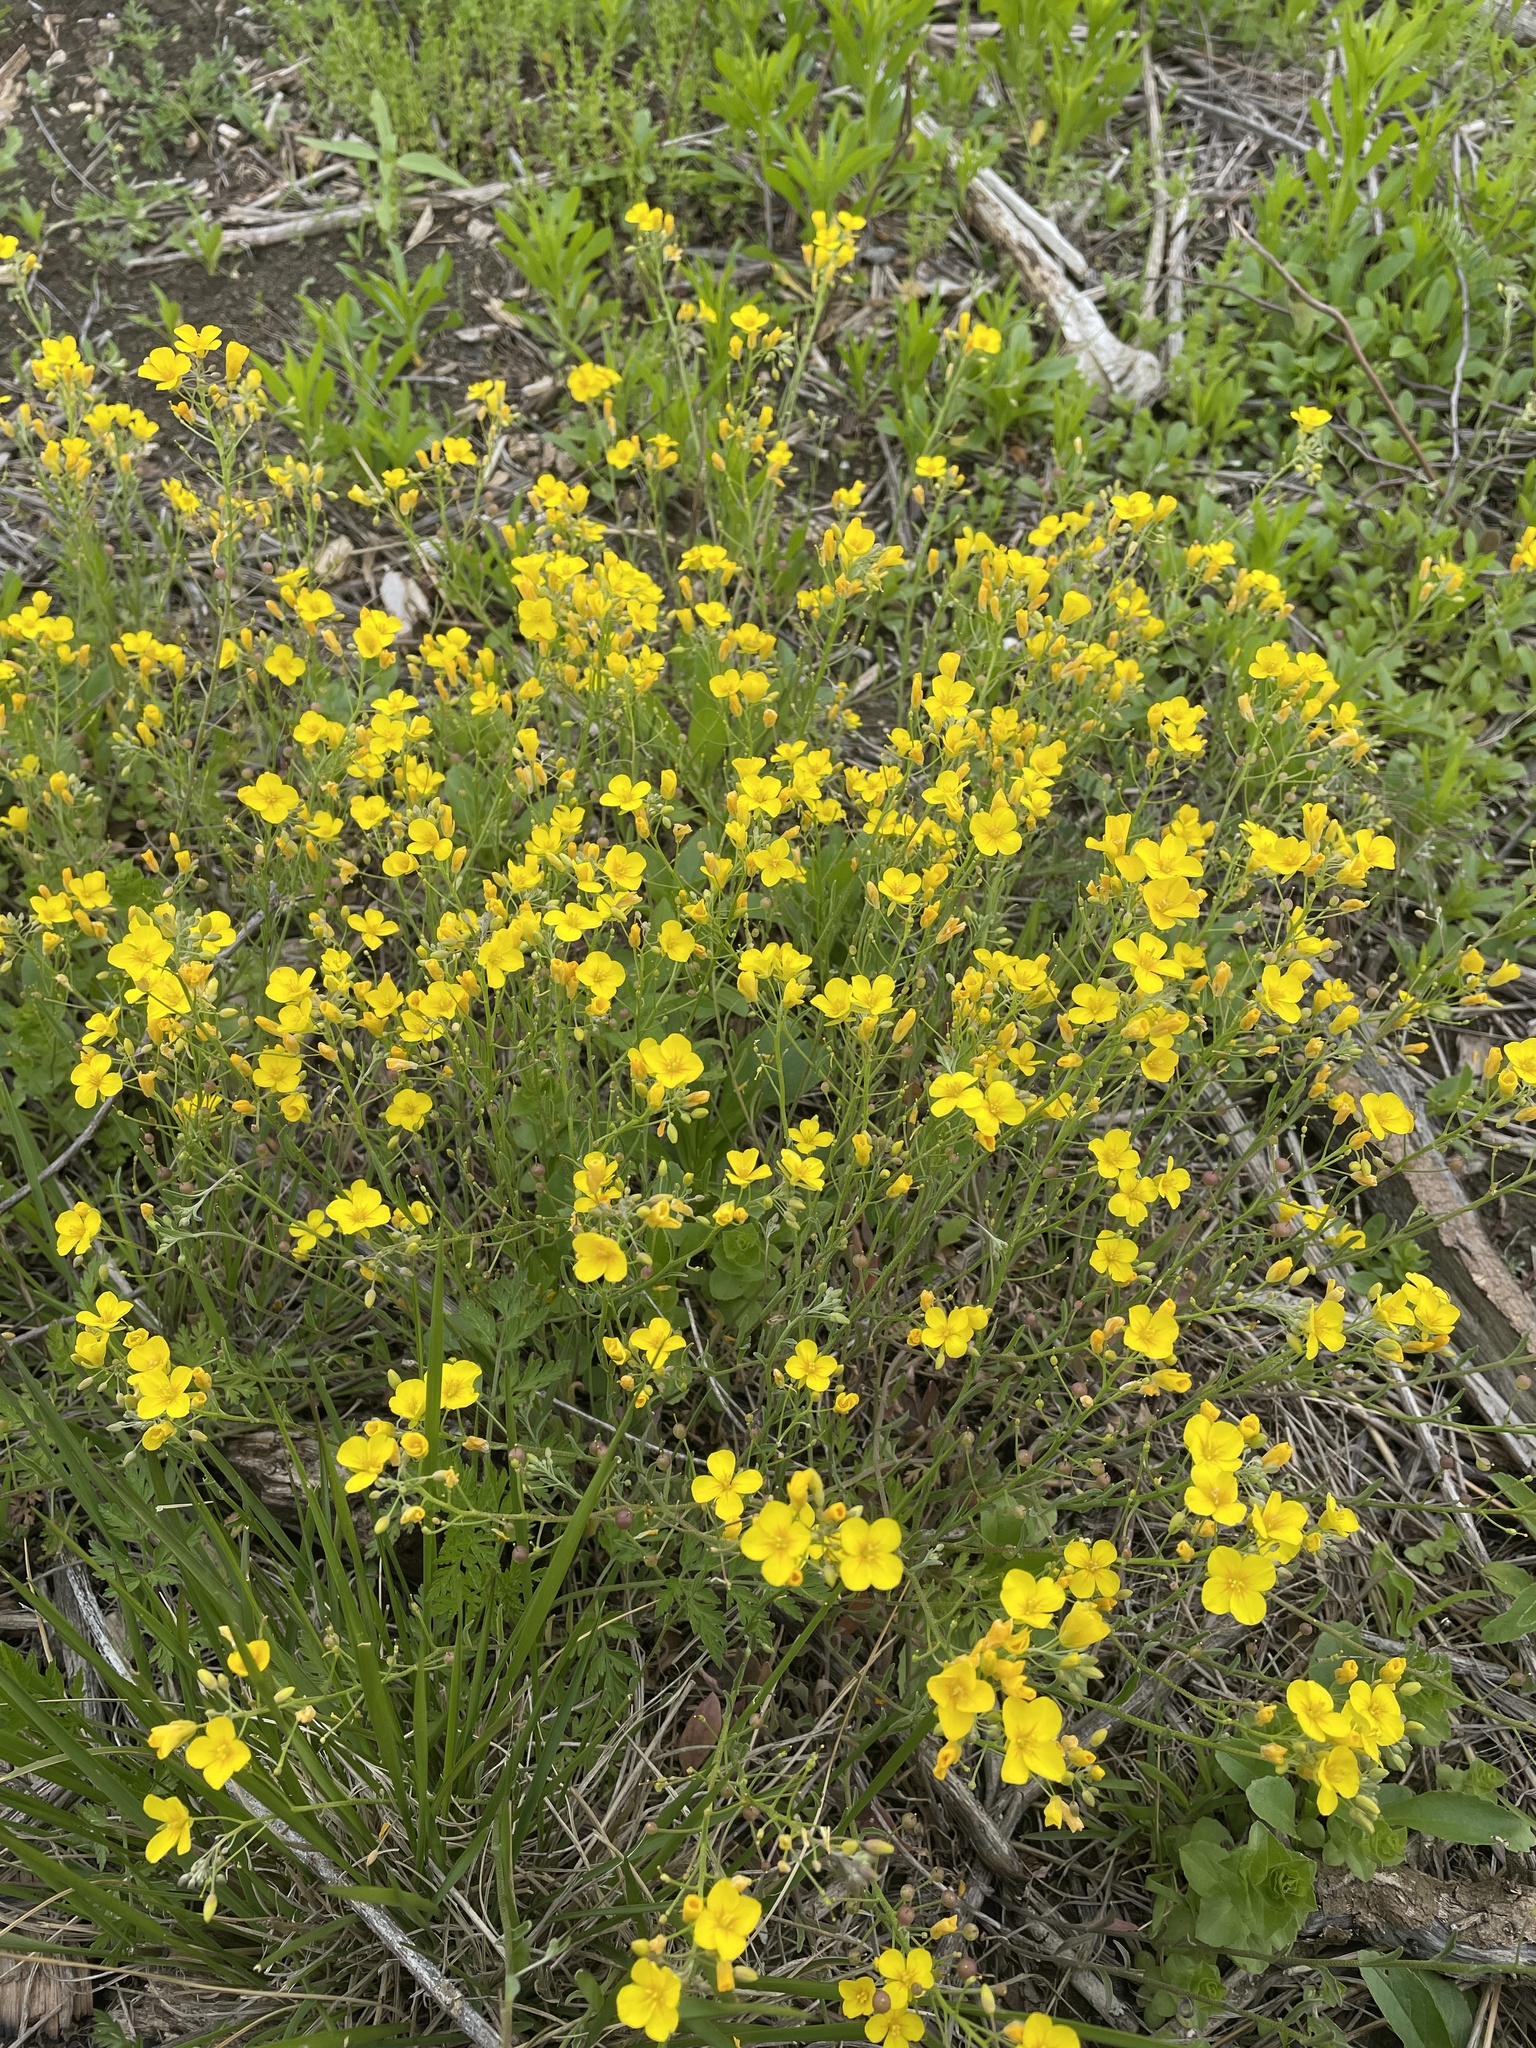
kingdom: Plantae
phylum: Tracheophyta
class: Magnoliopsida
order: Brassicales
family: Brassicaceae
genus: Physaria
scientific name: Physaria gracilis
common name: Spreading bladderpod
